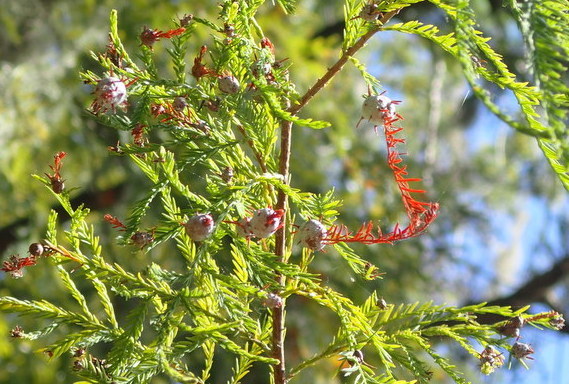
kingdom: Animalia
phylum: Arthropoda
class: Insecta
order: Diptera
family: Cecidomyiidae
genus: Taxodiomyia
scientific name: Taxodiomyia cupressiananassa
